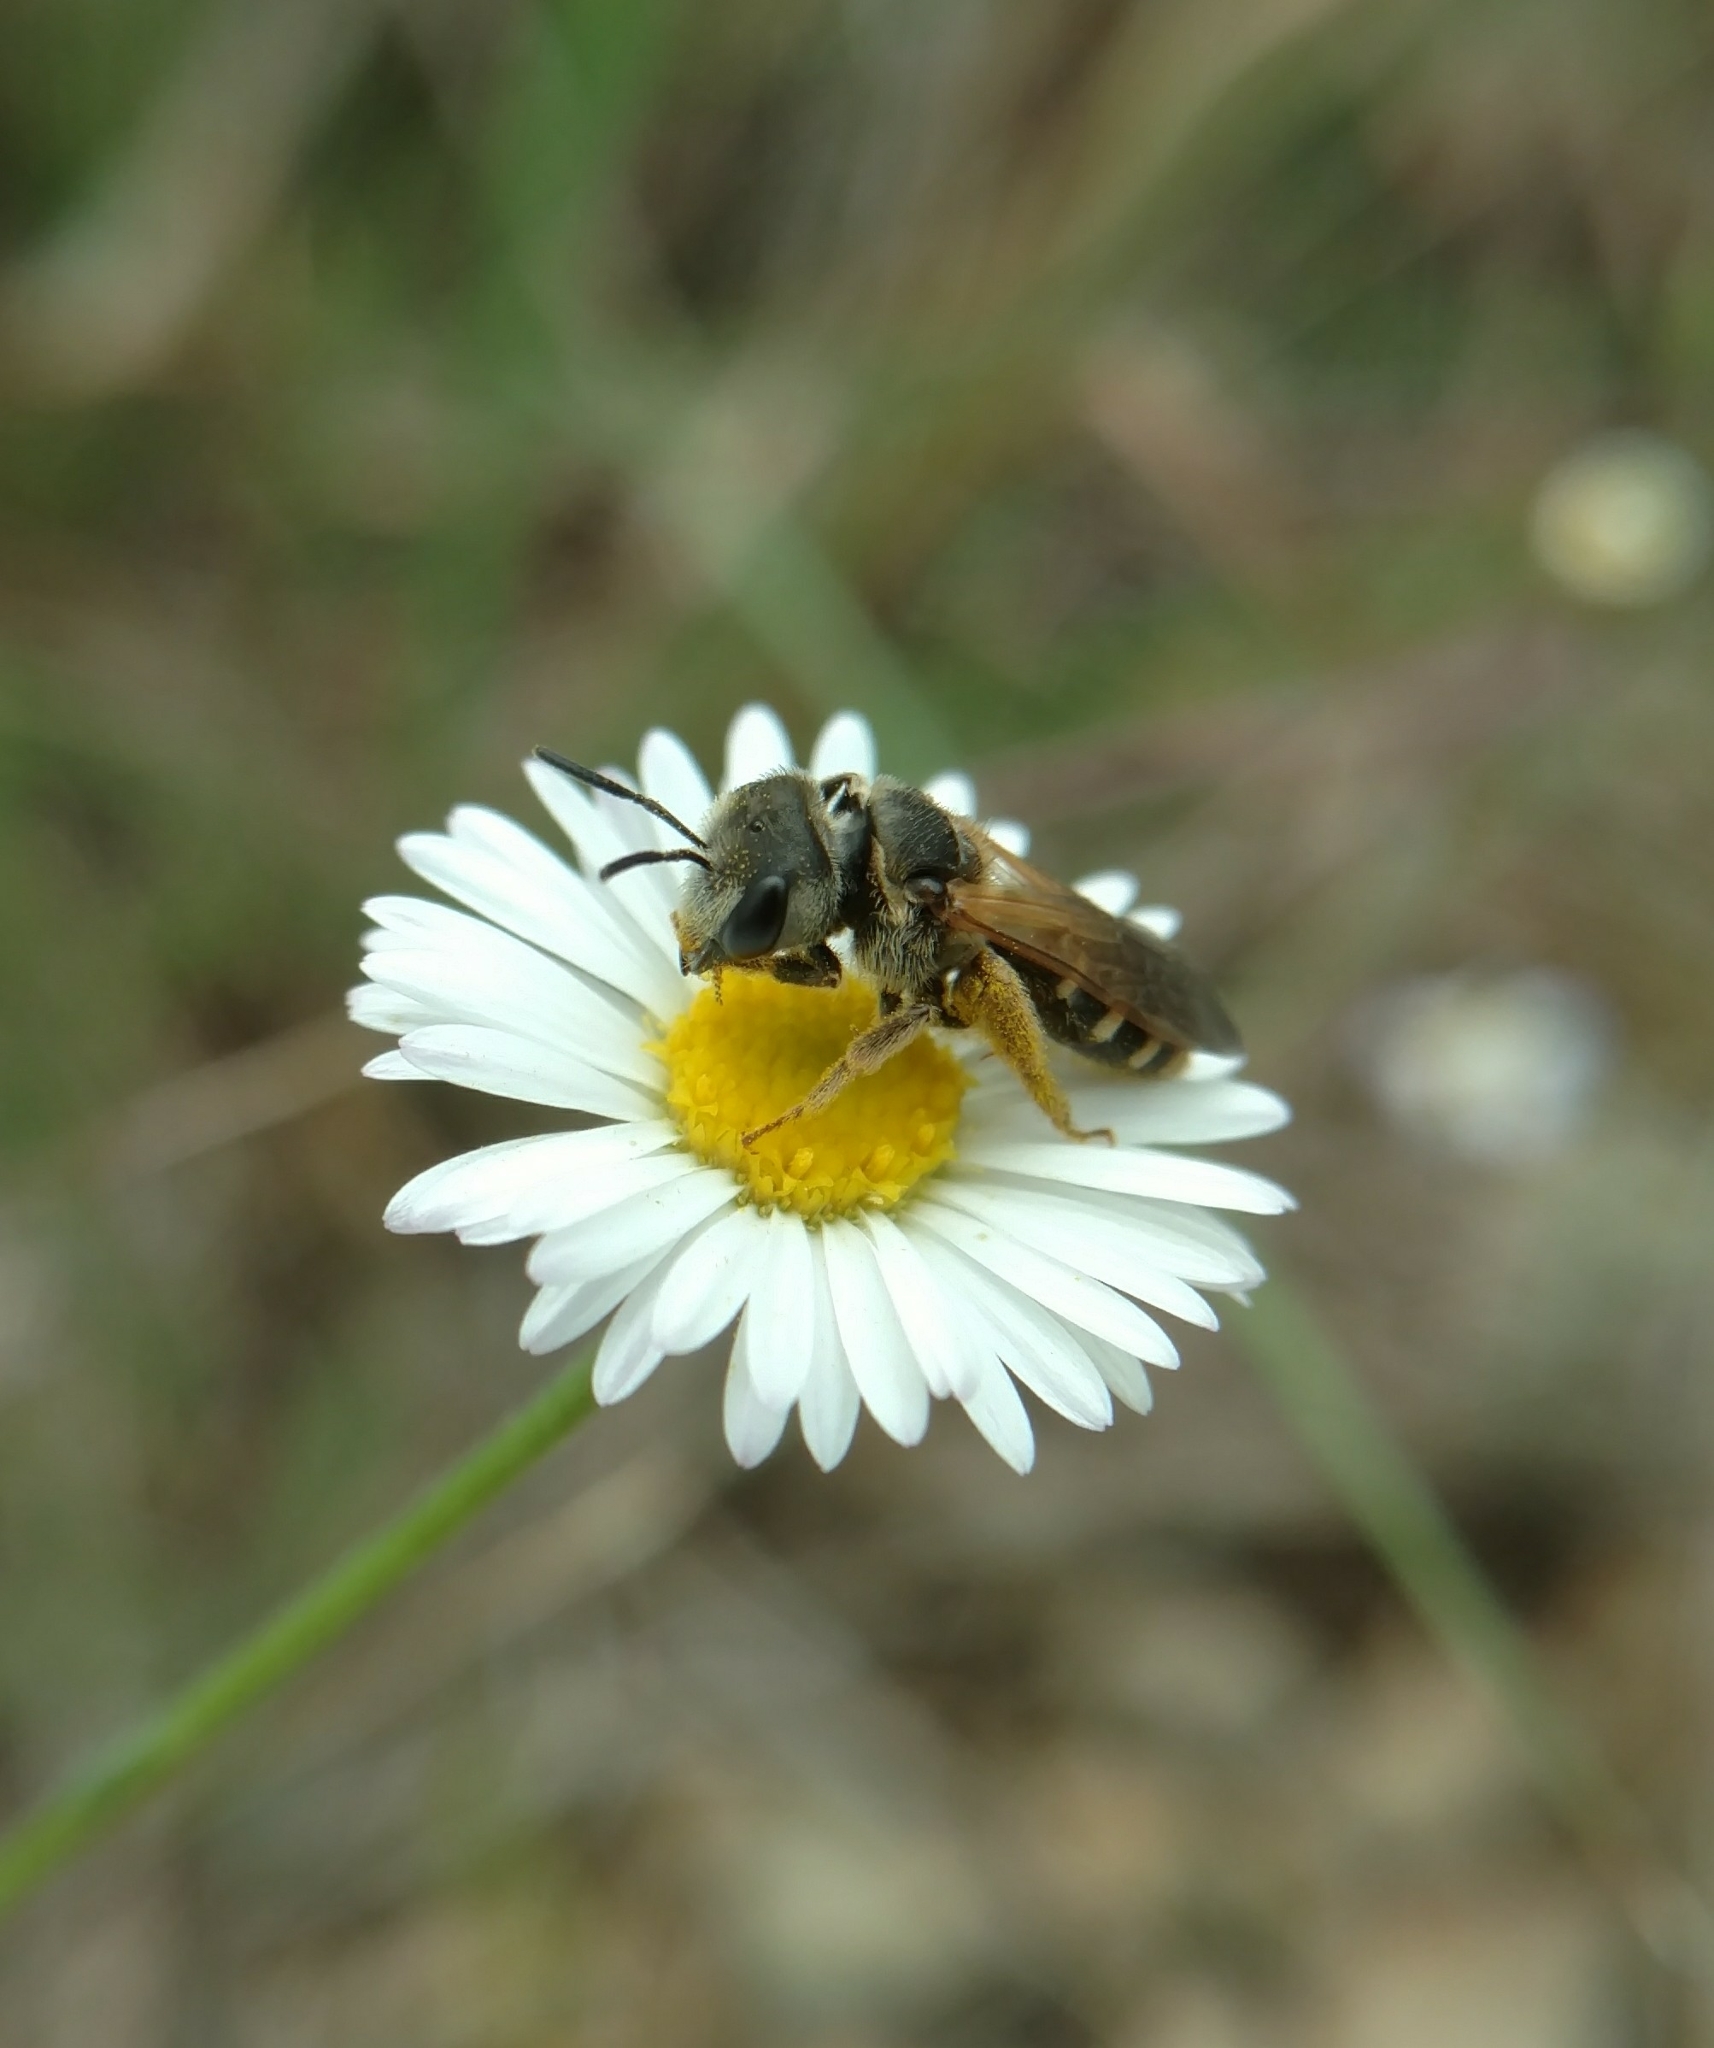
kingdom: Animalia
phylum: Arthropoda
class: Insecta
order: Hymenoptera
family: Halictidae
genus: Halictus
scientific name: Halictus ligatus
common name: Ligated furrow bee
